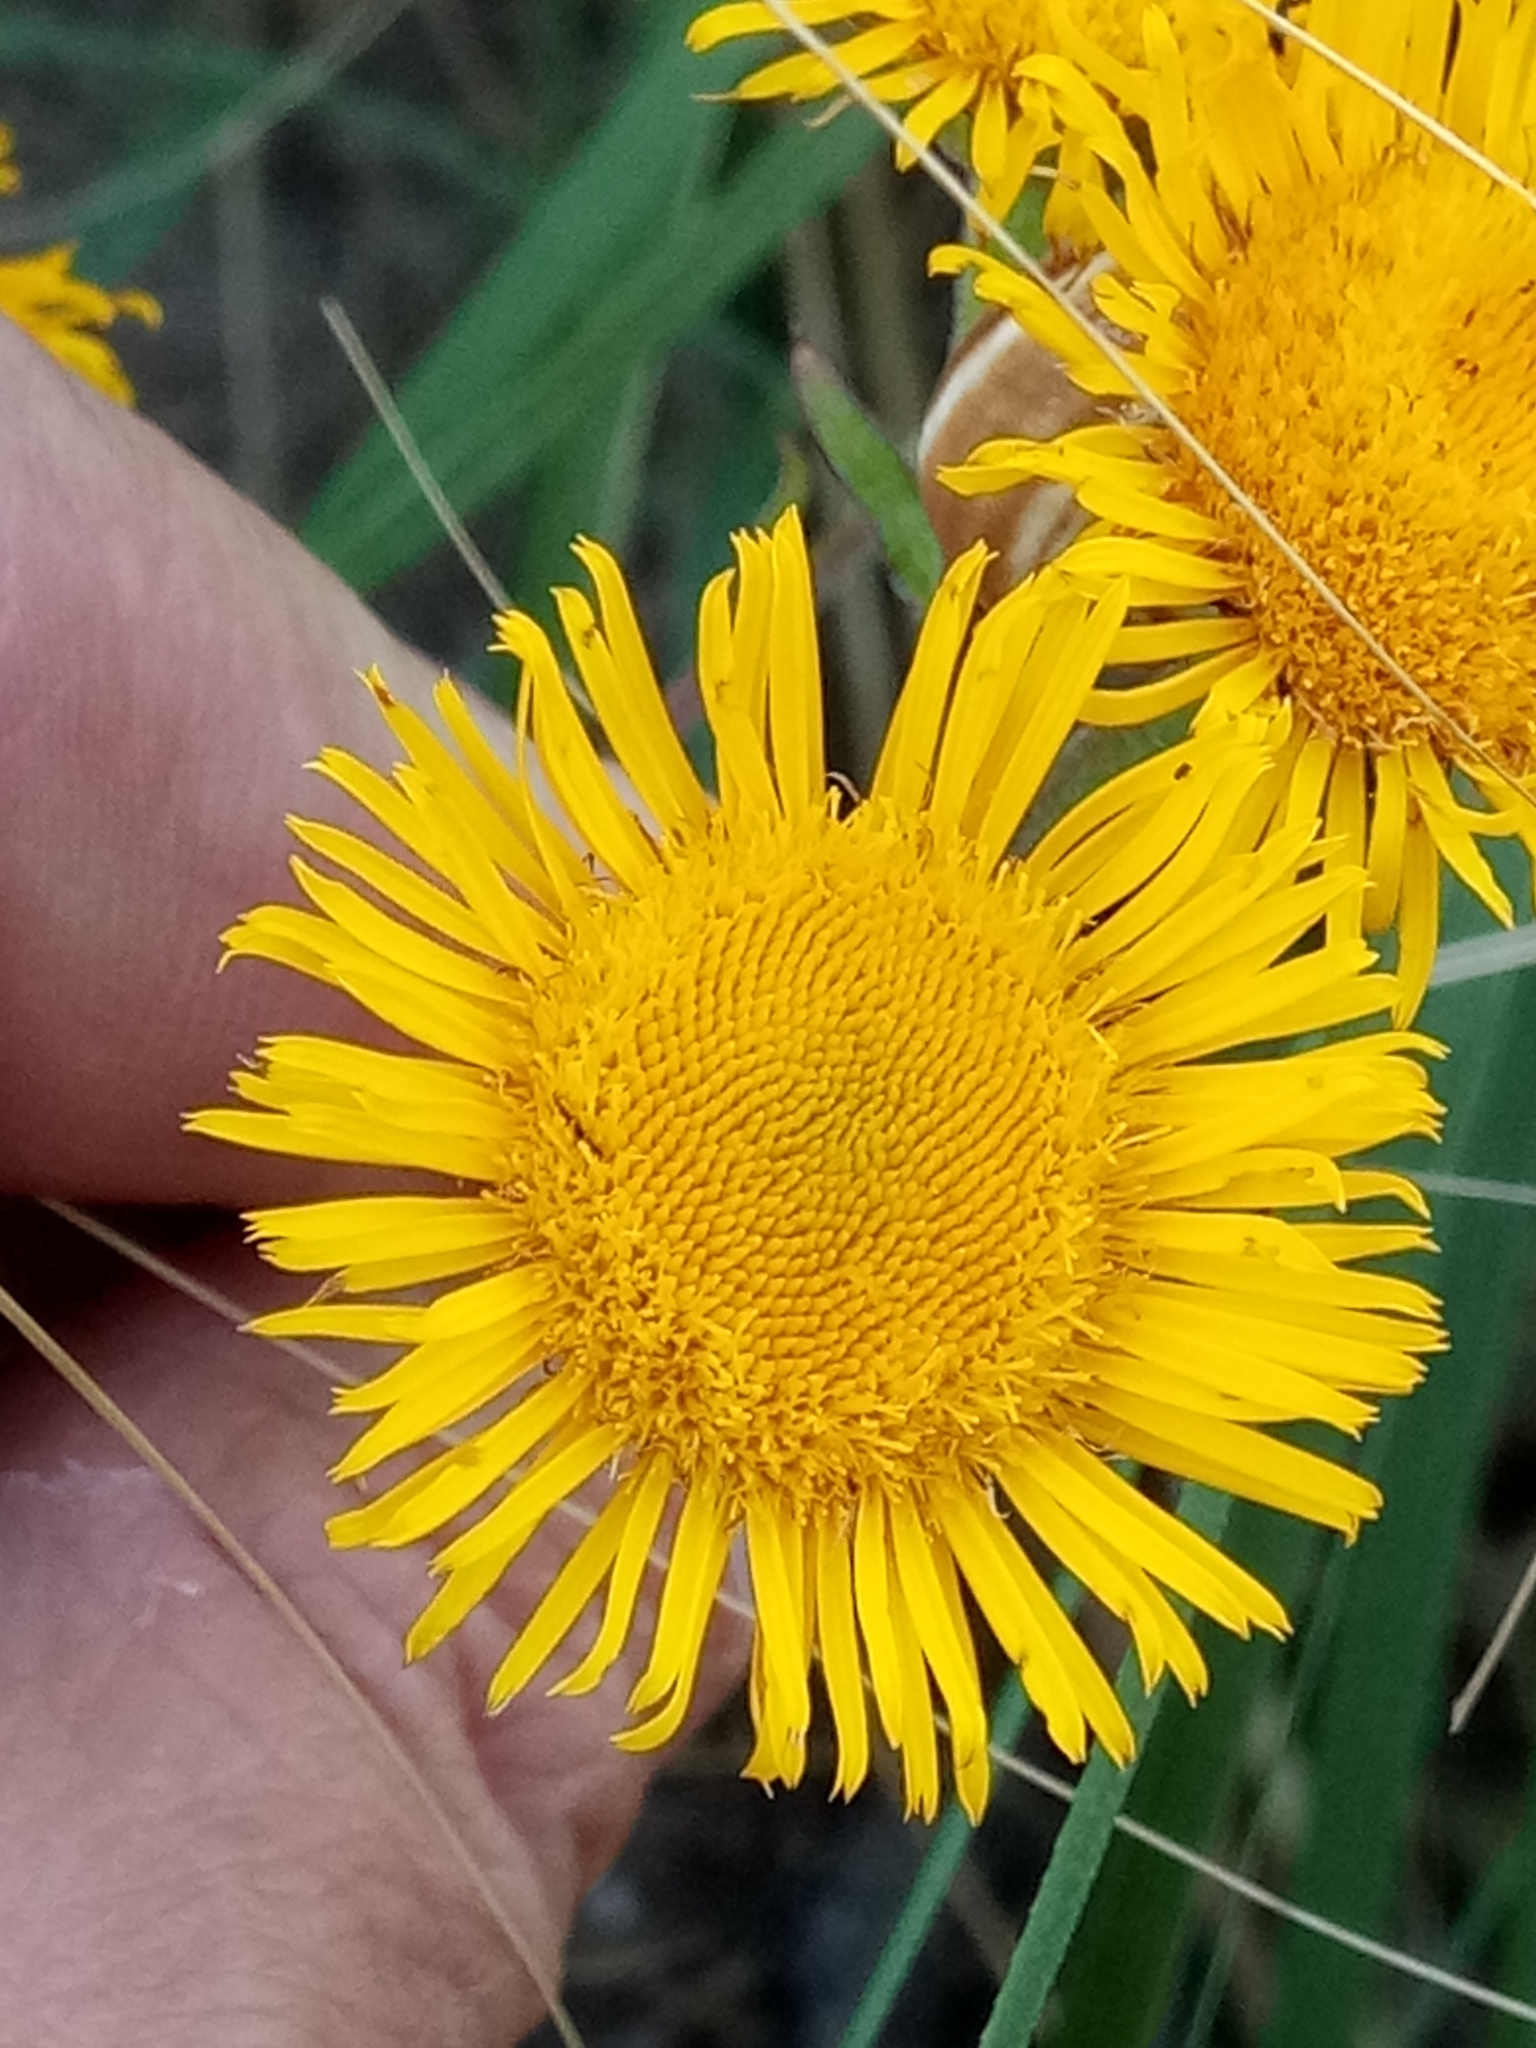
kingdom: Plantae
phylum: Tracheophyta
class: Magnoliopsida
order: Asterales
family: Asteraceae
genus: Pulicaria
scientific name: Pulicaria odora
